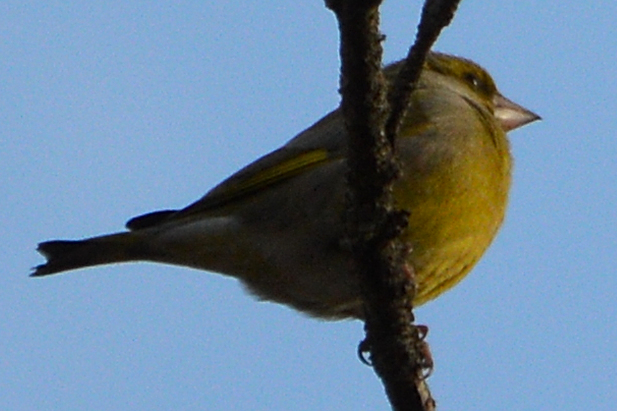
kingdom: Plantae
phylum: Tracheophyta
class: Liliopsida
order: Poales
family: Poaceae
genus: Chloris
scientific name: Chloris chloris
